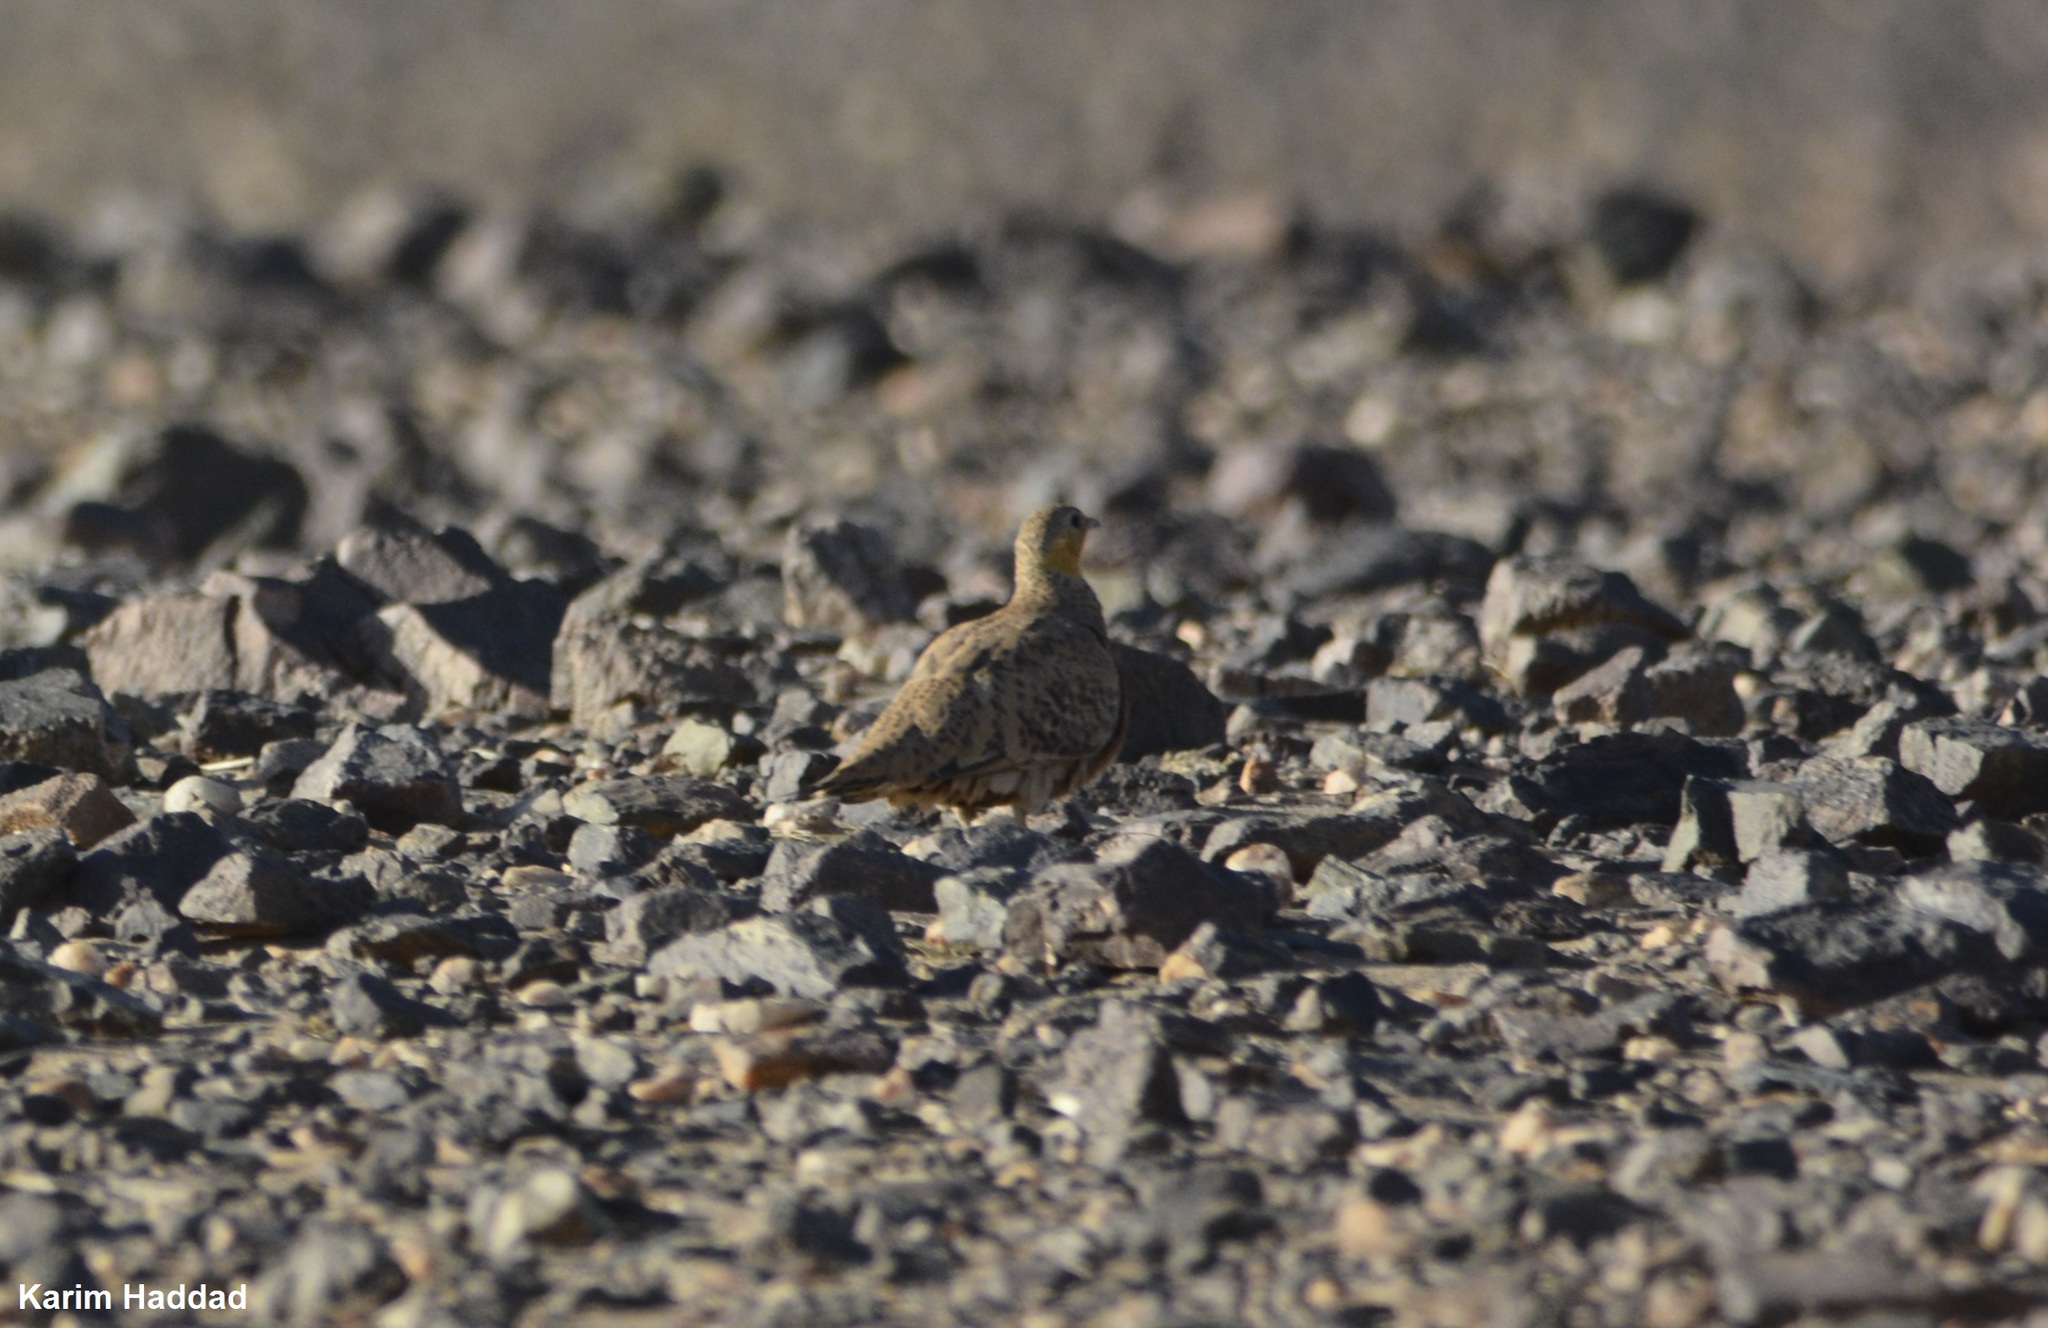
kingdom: Animalia
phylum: Chordata
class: Aves
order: Pteroclidiformes
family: Pteroclididae
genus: Pterocles
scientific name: Pterocles senegallus
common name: Spotted sandgrouse
